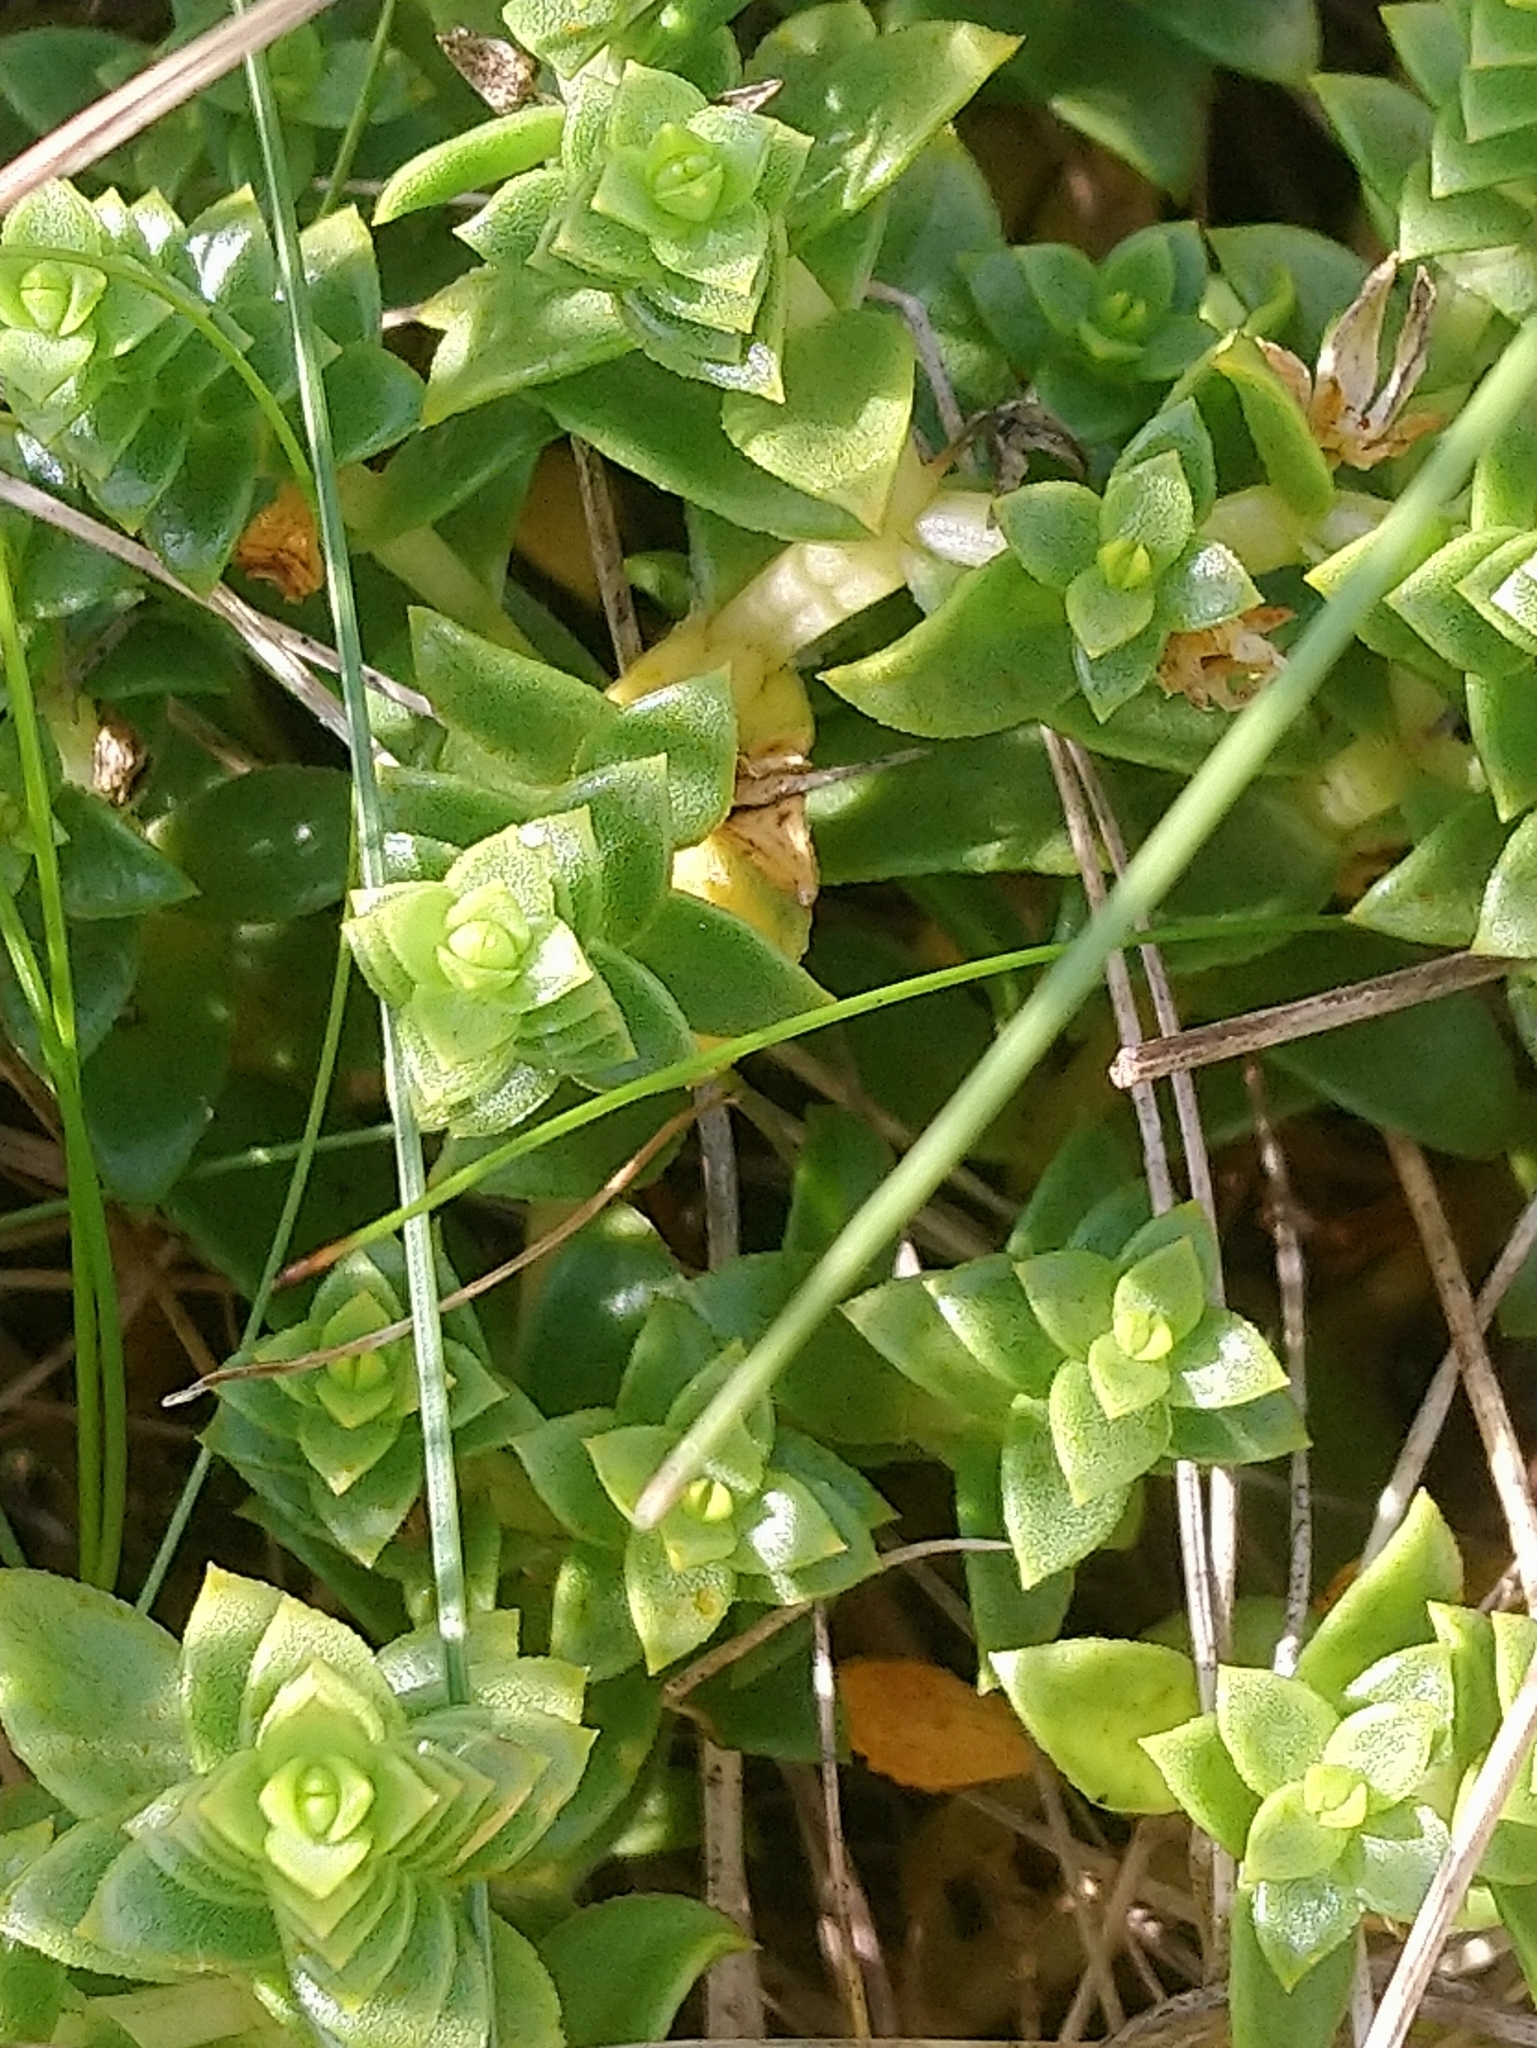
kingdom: Plantae
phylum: Tracheophyta
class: Magnoliopsida
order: Caryophyllales
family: Caryophyllaceae
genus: Honckenya
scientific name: Honckenya peploides
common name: Sea sandwort
